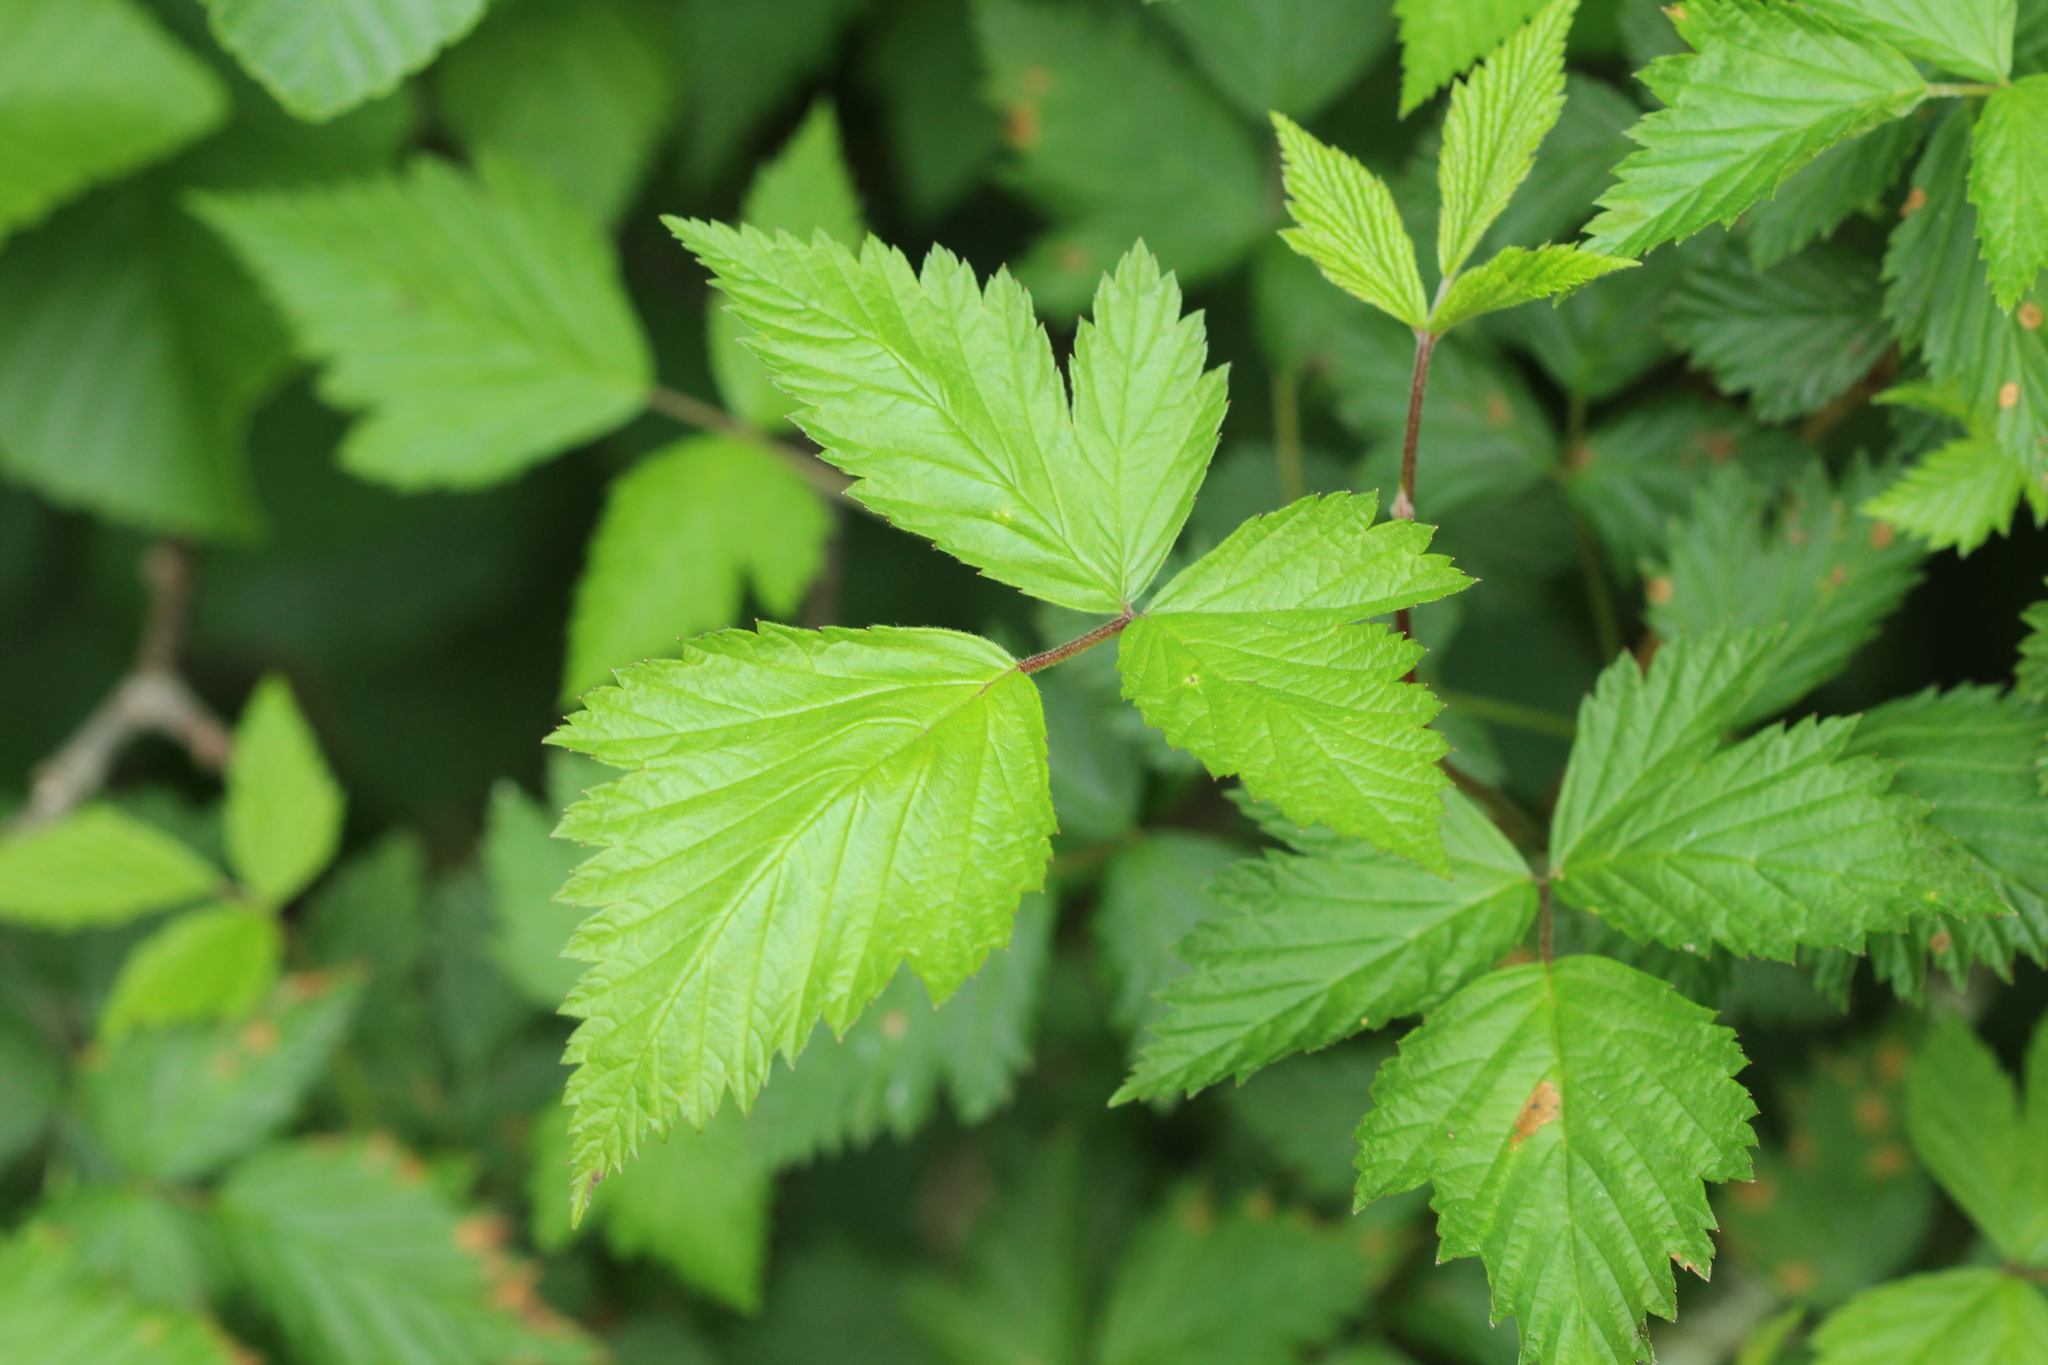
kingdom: Plantae
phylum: Tracheophyta
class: Magnoliopsida
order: Rosales
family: Rosaceae
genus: Rubus
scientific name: Rubus spectabilis
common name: Salmonberry
